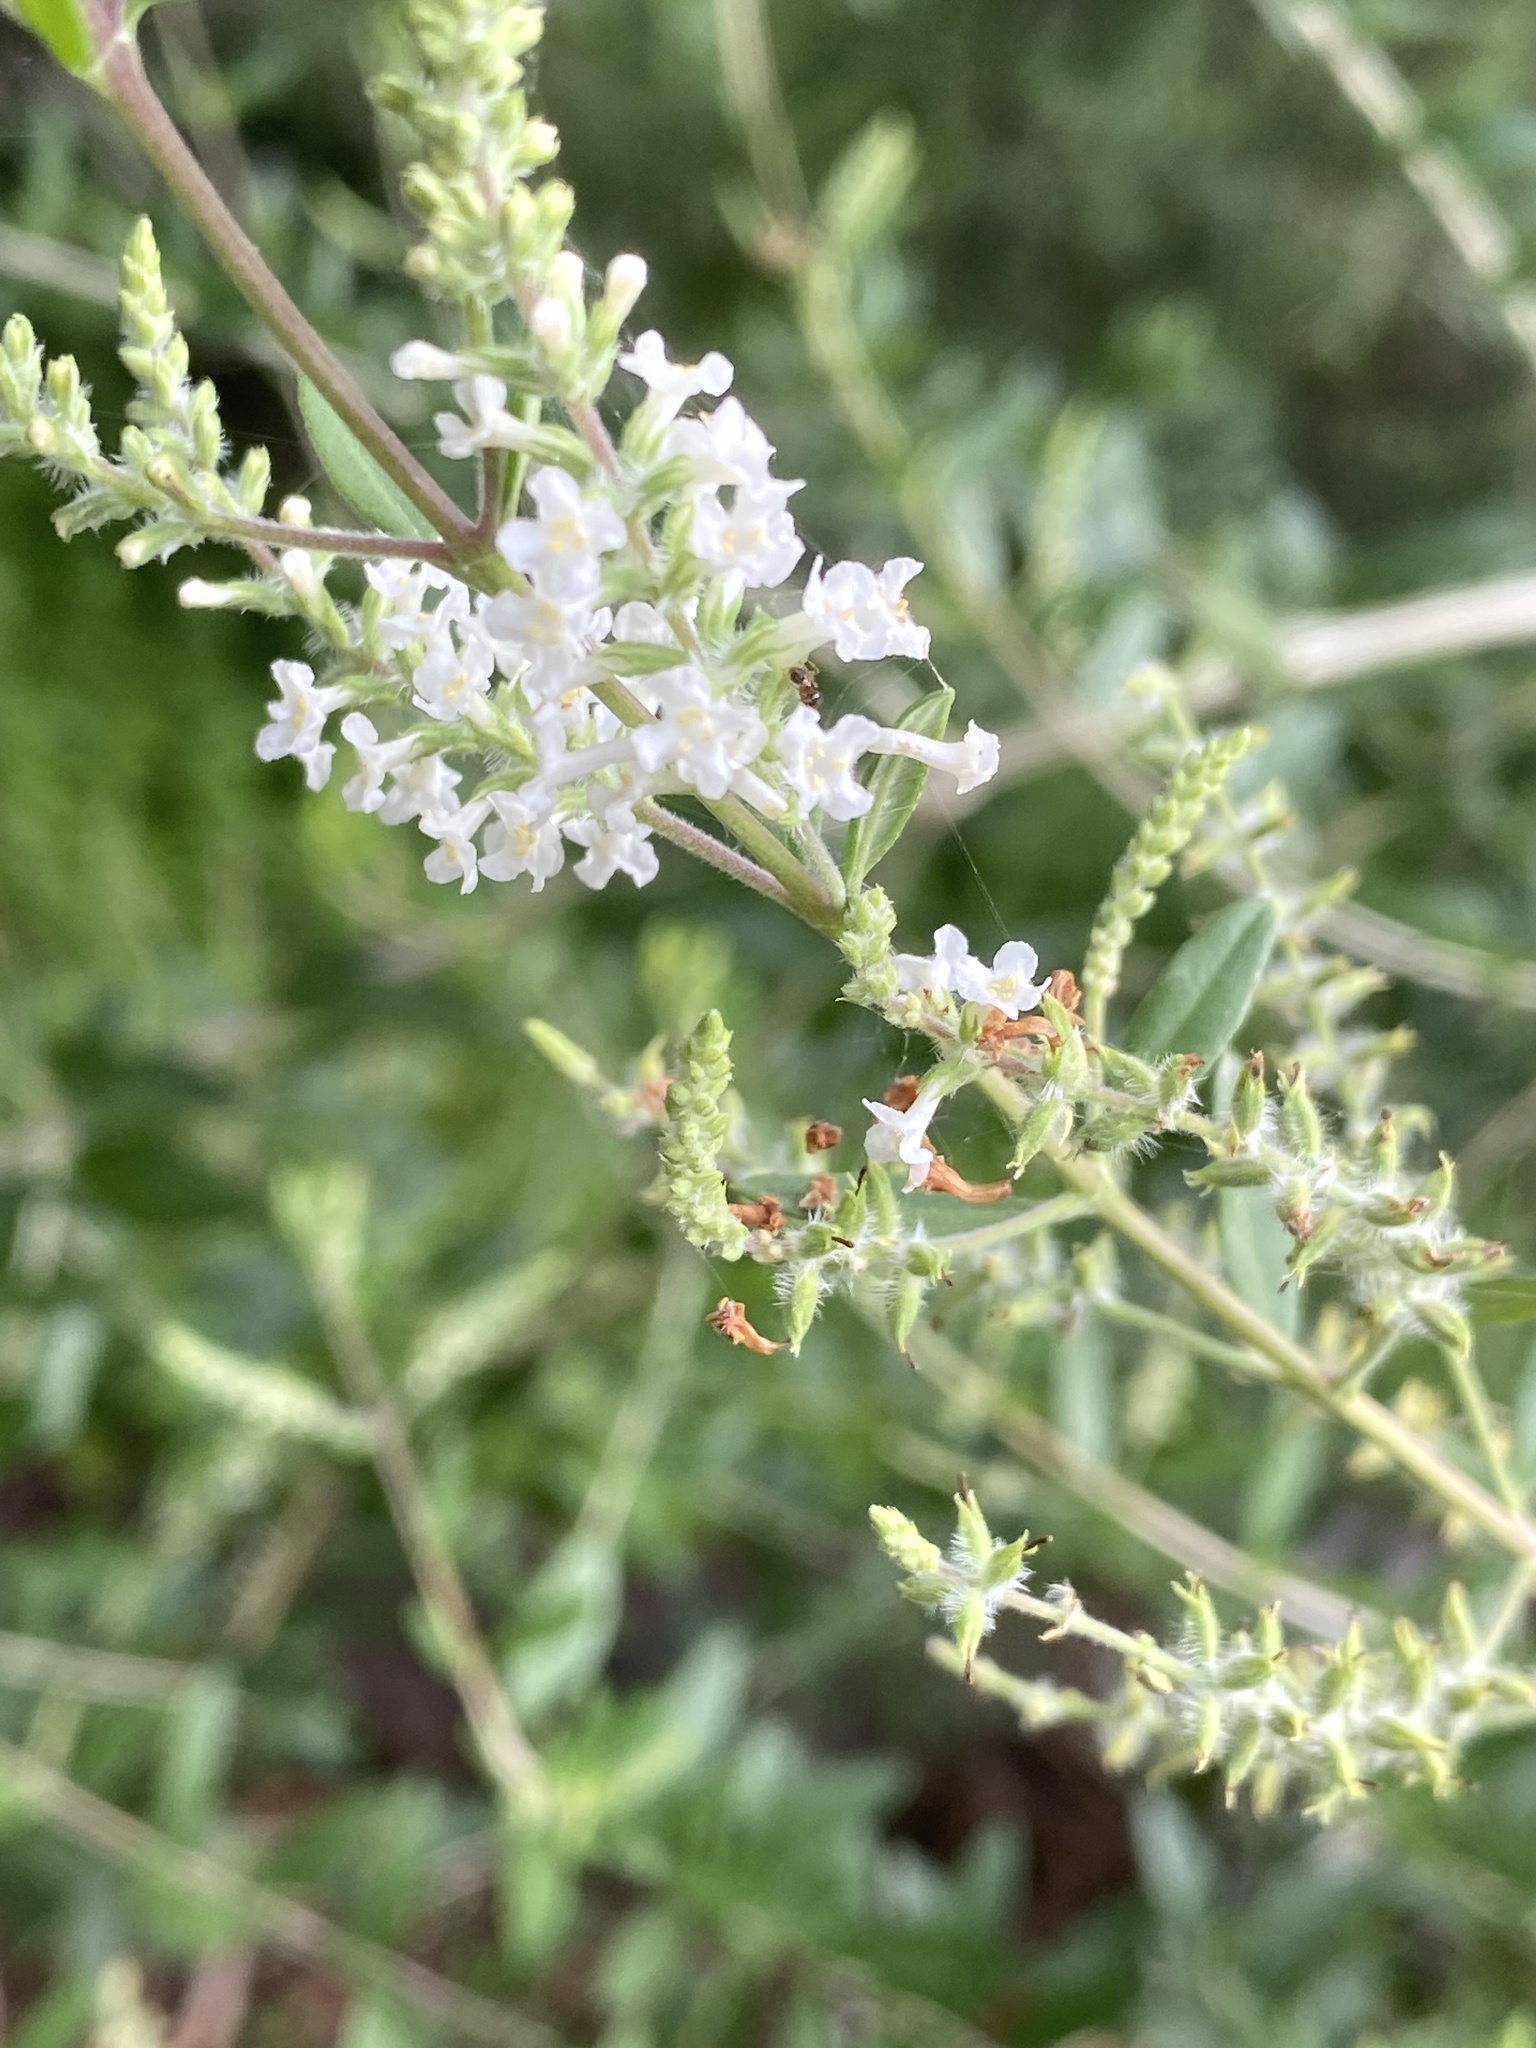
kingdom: Plantae
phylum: Tracheophyta
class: Magnoliopsida
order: Lamiales
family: Verbenaceae
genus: Aloysia
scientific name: Aloysia gratissima
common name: Common bee-brush
